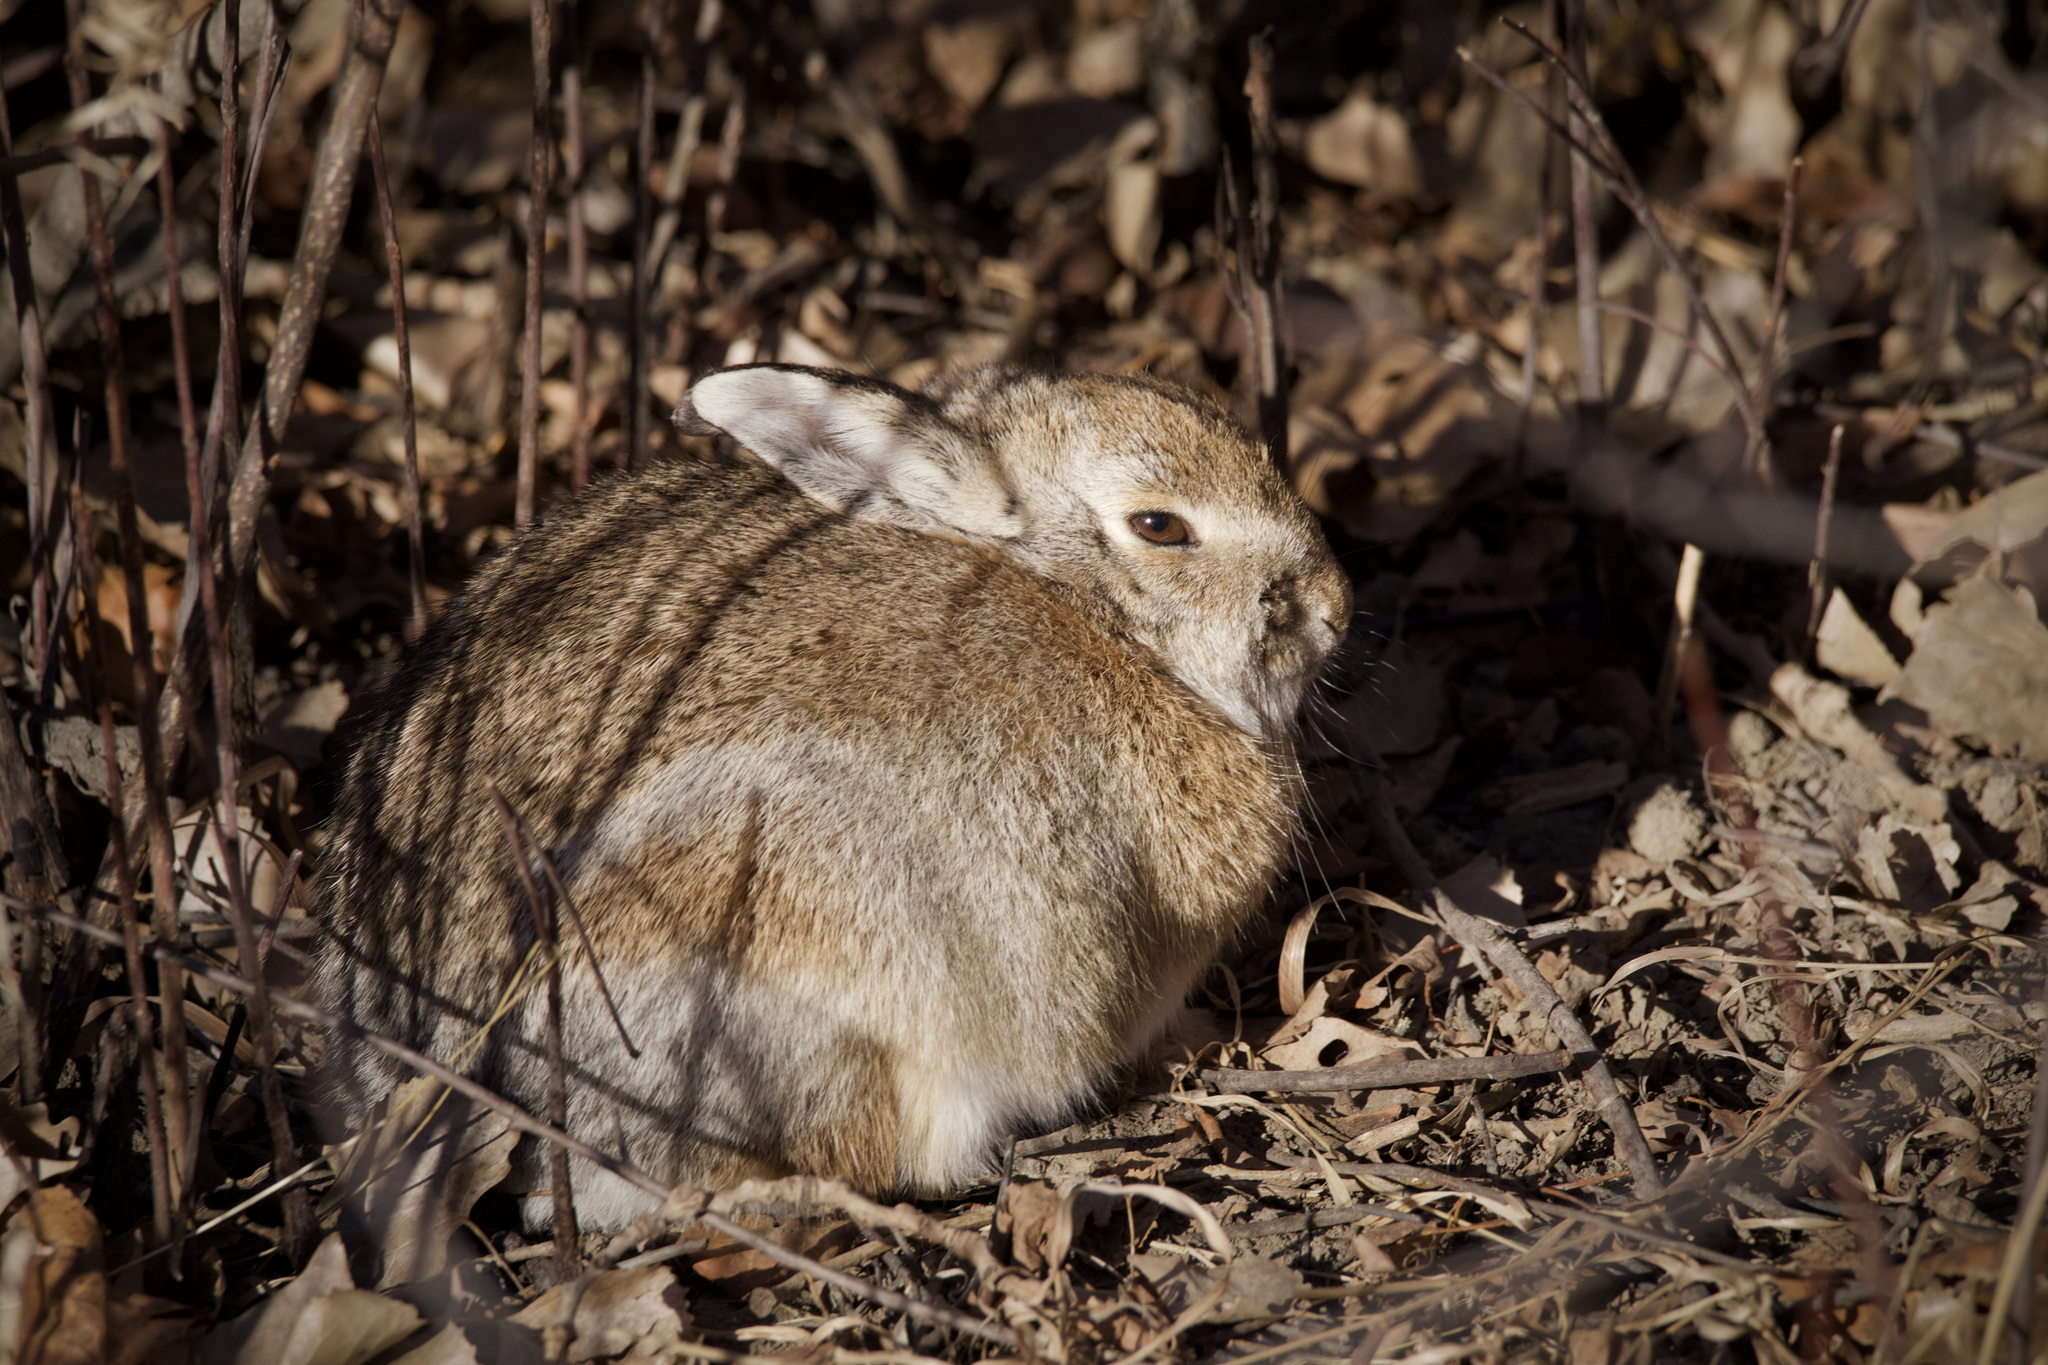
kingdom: Animalia
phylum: Chordata
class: Mammalia
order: Lagomorpha
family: Leporidae
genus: Sylvilagus
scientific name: Sylvilagus nuttallii
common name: Mountain cottontail
